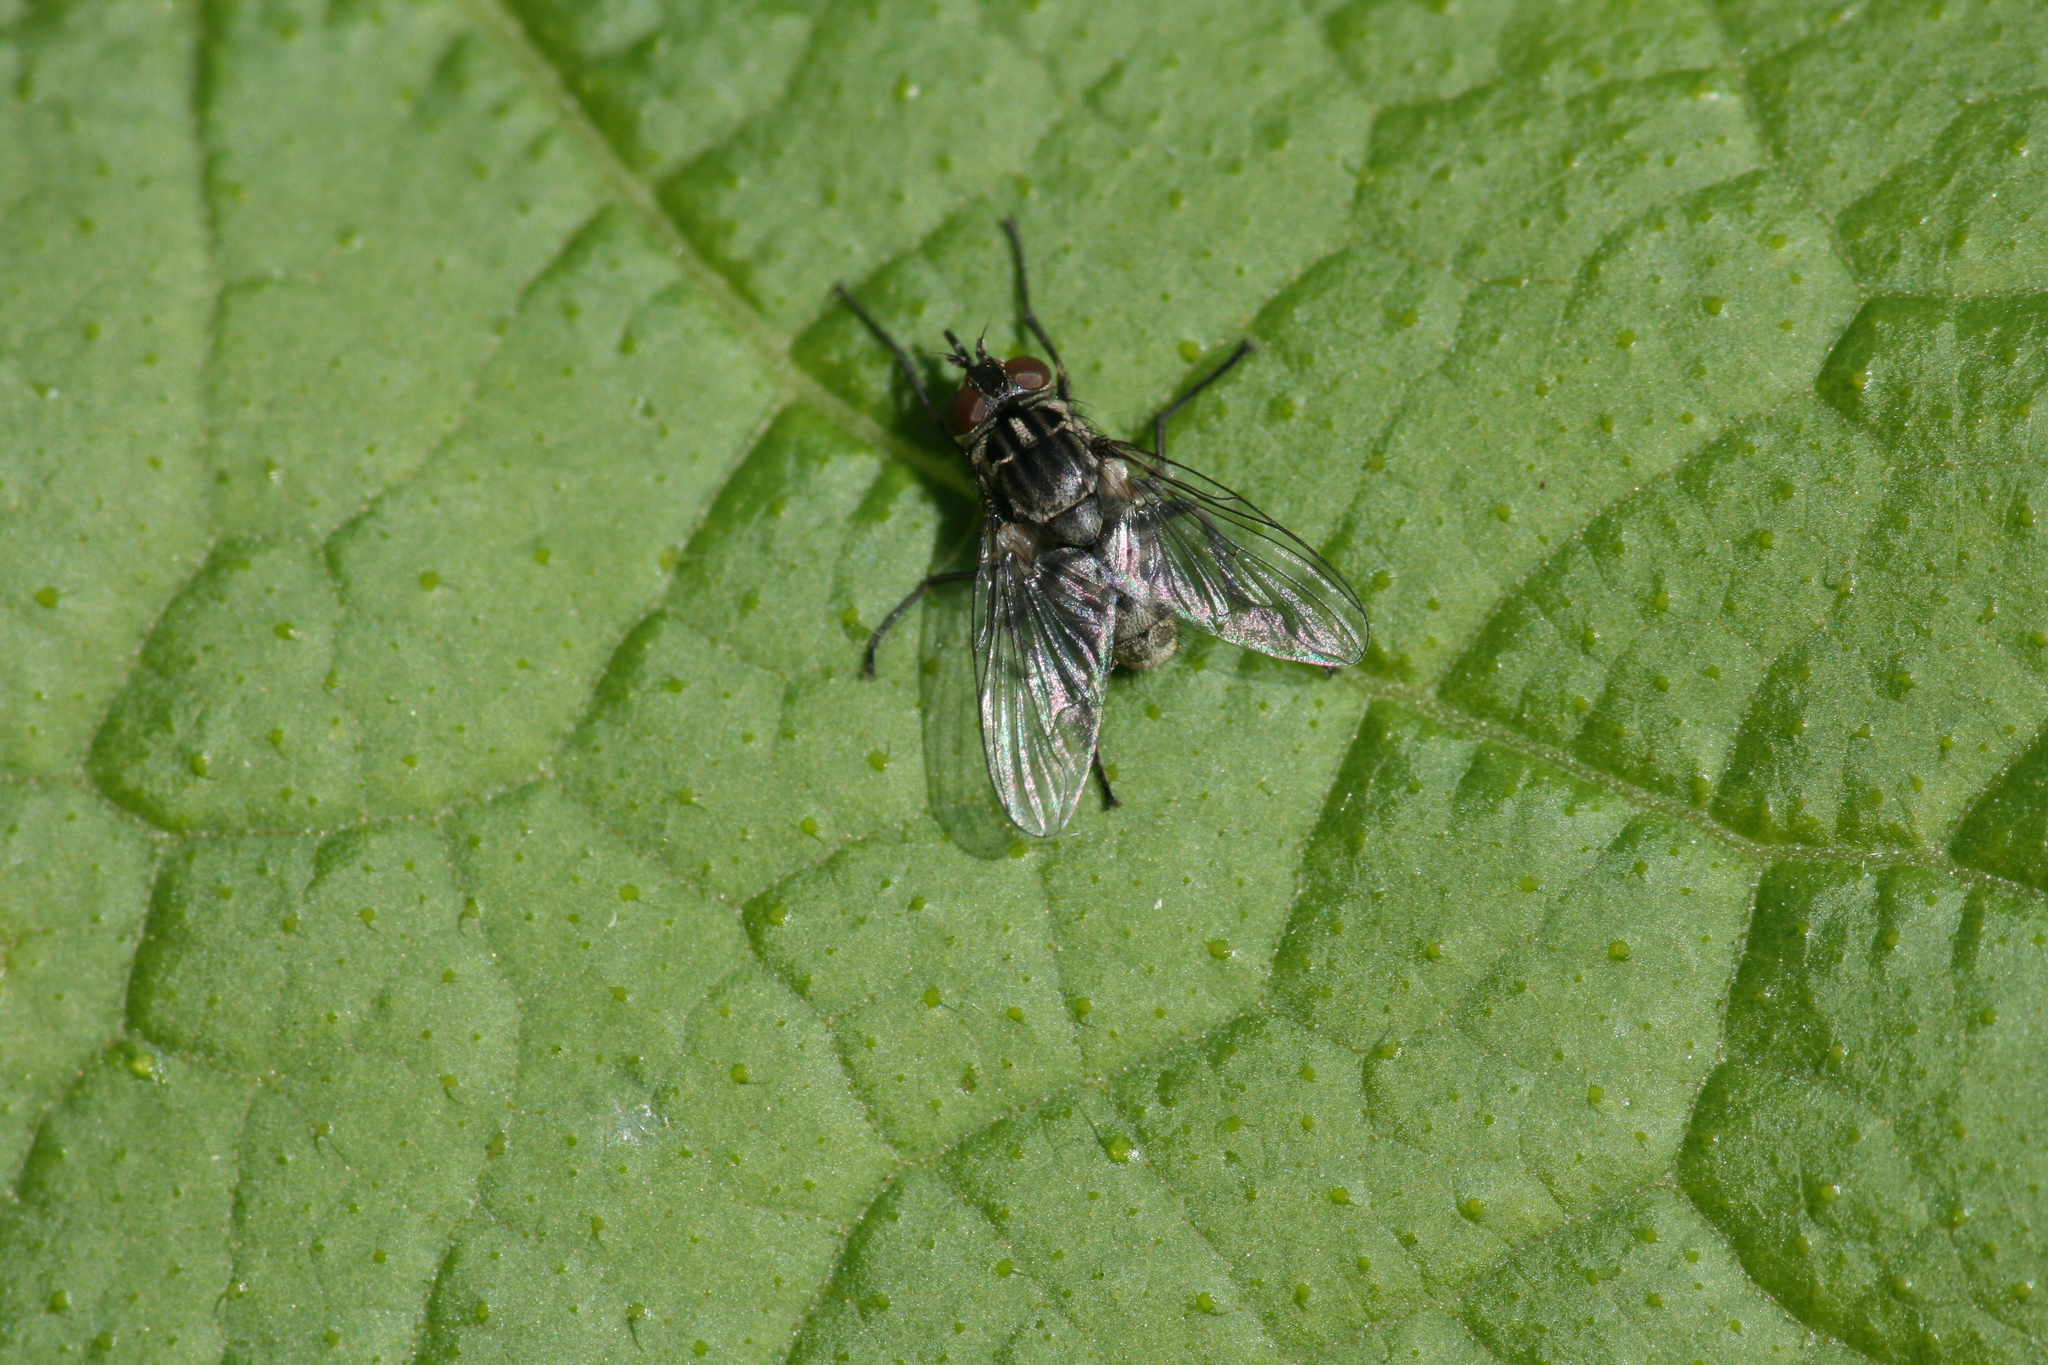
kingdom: Animalia
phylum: Arthropoda
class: Insecta
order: Diptera
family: Muscidae
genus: Stomoxys
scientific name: Stomoxys calcitrans
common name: Stable fly
